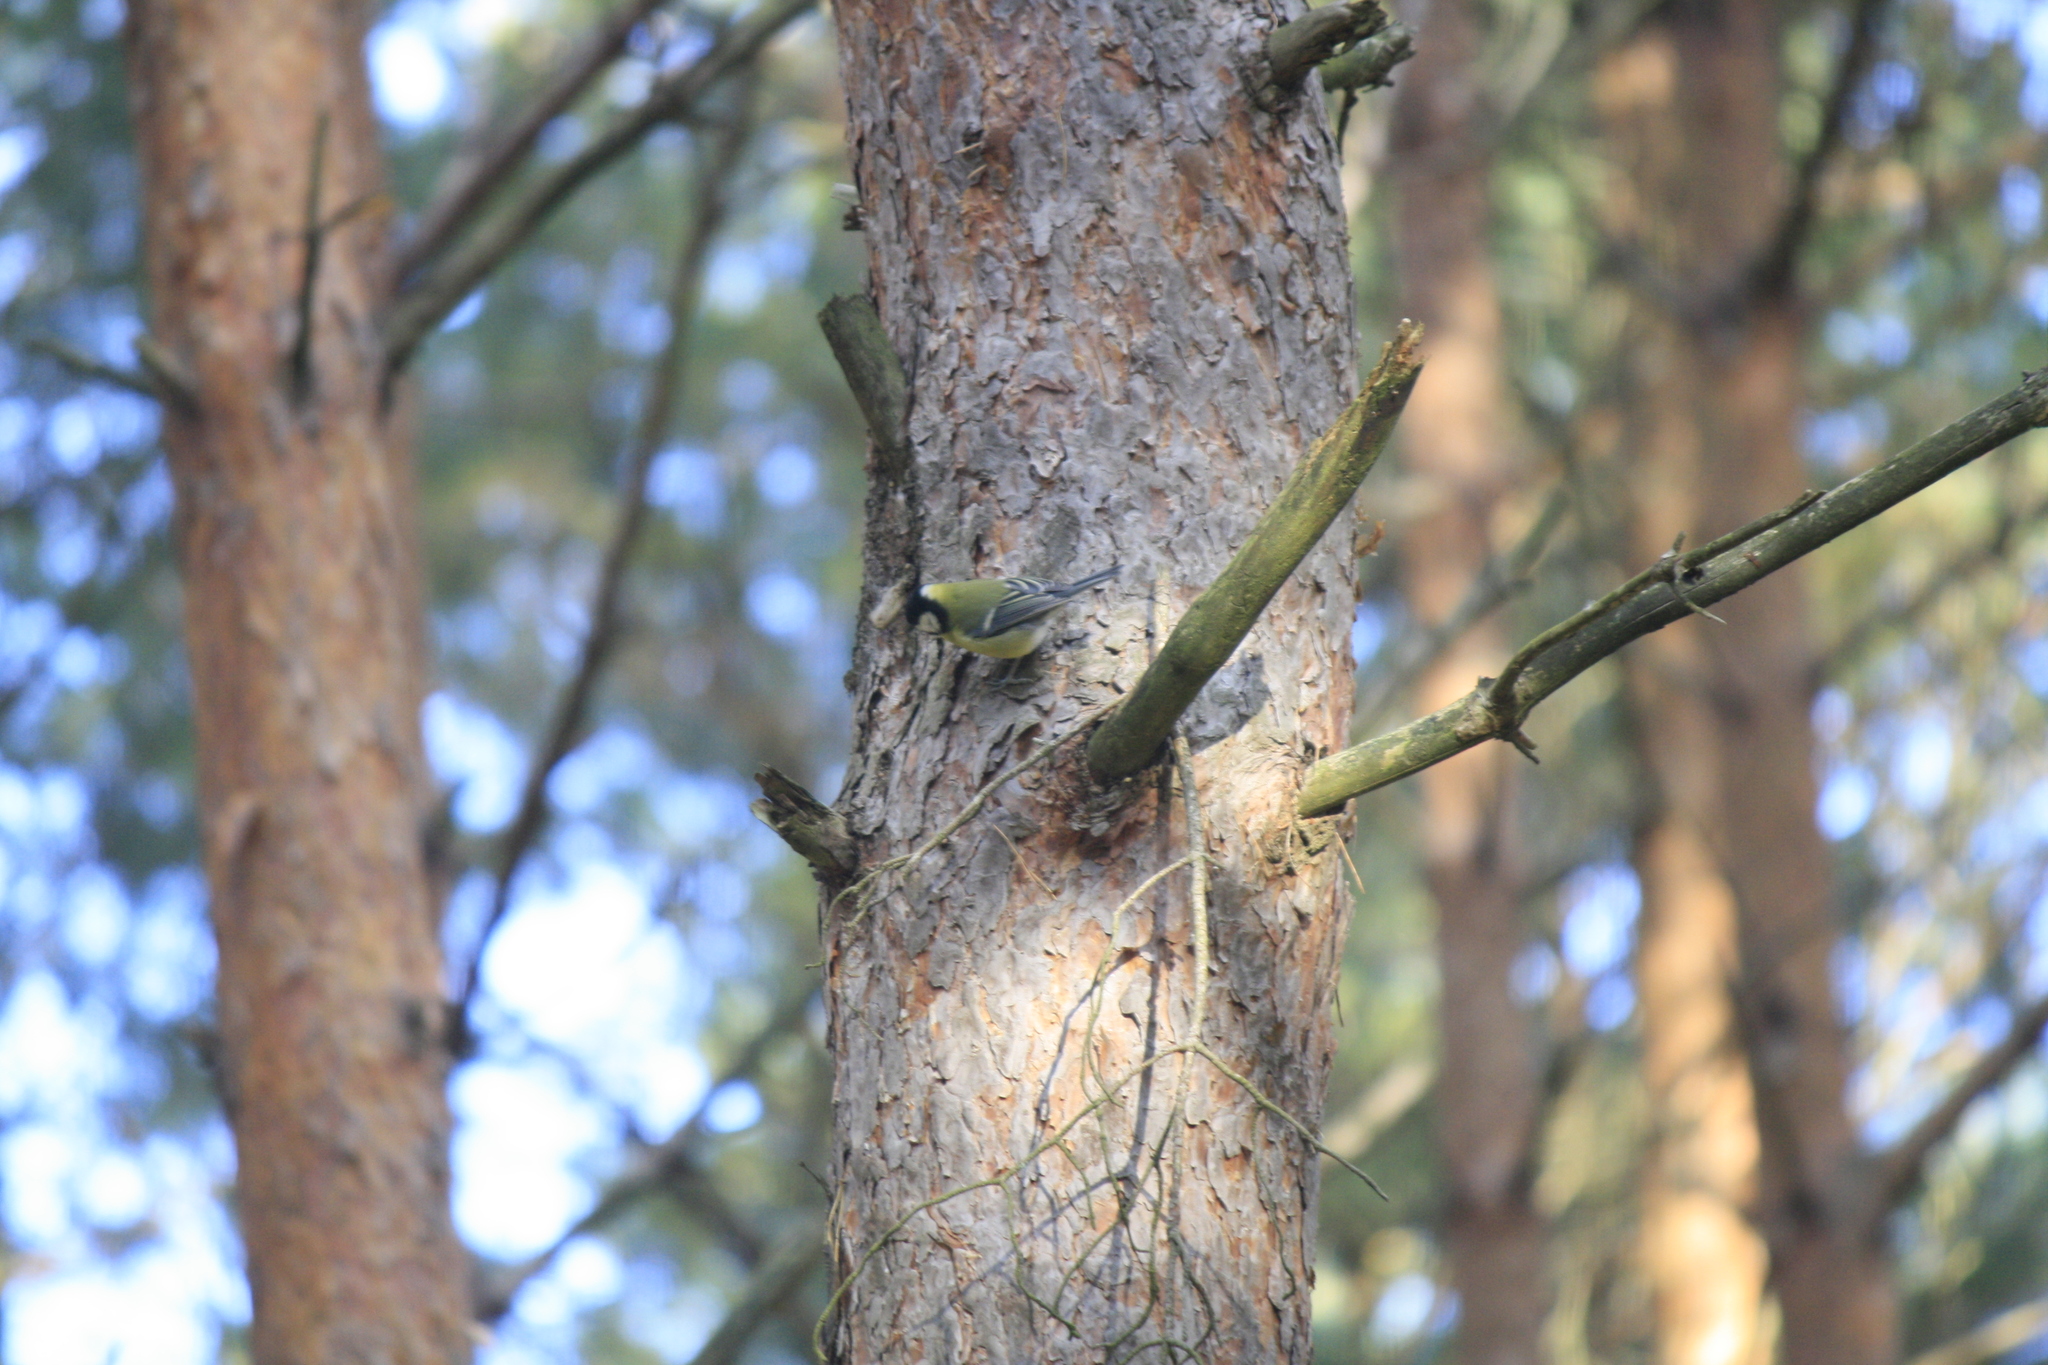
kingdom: Animalia
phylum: Chordata
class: Aves
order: Passeriformes
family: Paridae
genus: Parus
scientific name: Parus major
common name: Great tit
